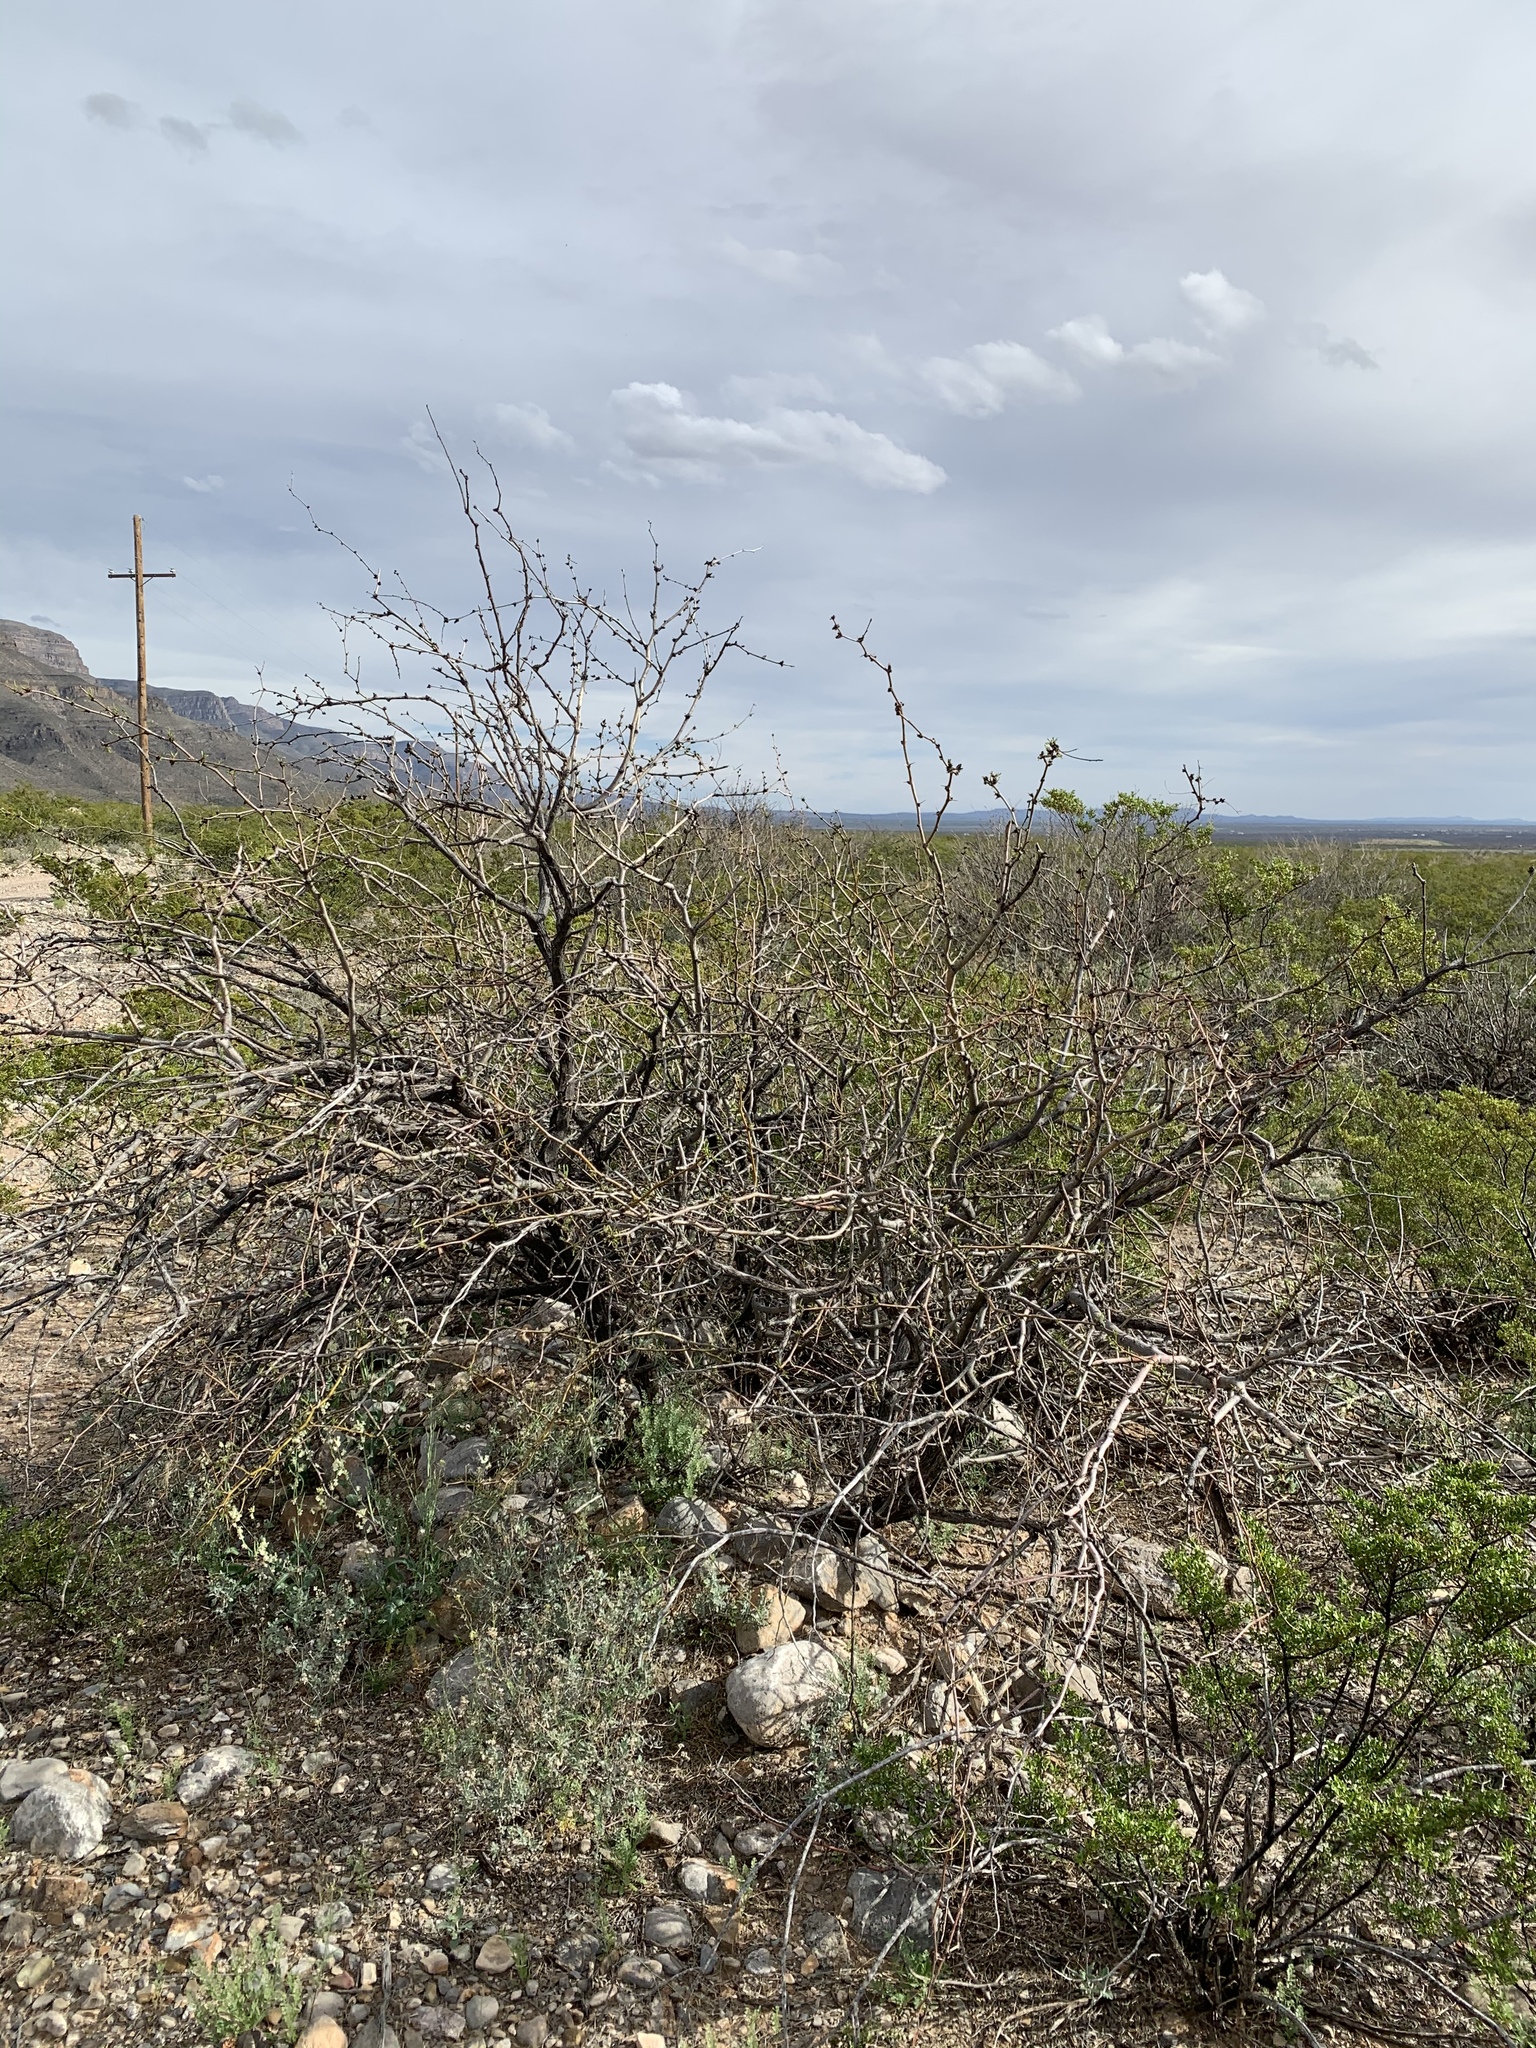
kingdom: Plantae
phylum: Tracheophyta
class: Magnoliopsida
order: Fabales
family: Fabaceae
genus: Prosopis
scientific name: Prosopis glandulosa
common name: Honey mesquite
